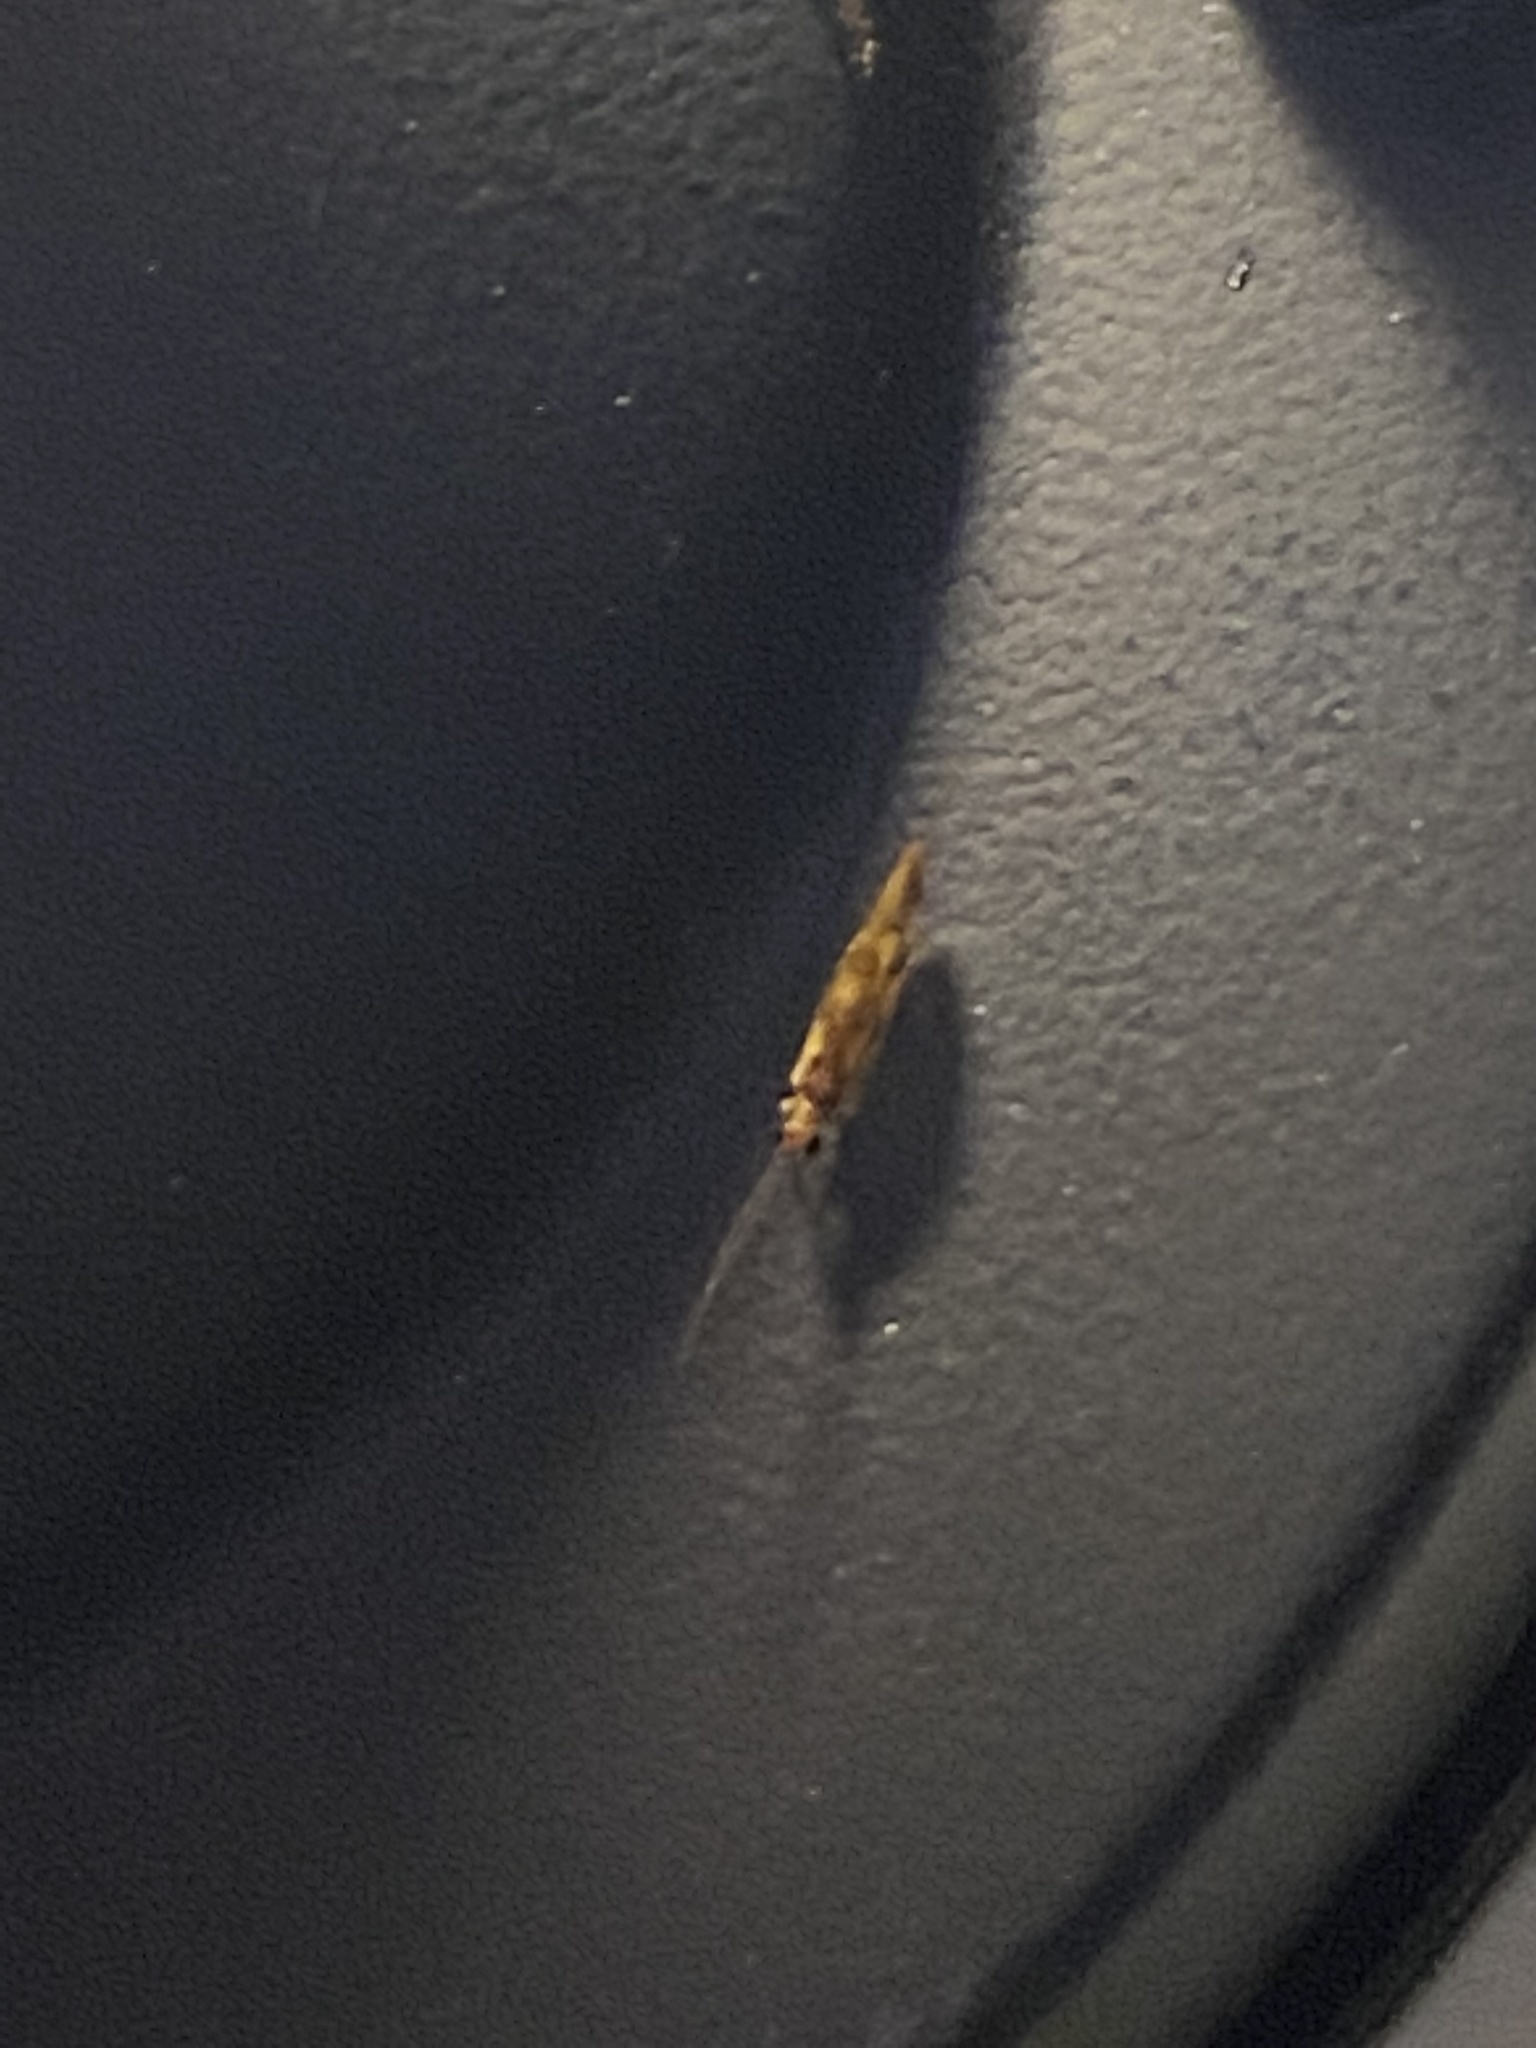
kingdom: Animalia
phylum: Arthropoda
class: Insecta
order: Neuroptera
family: Sisyridae
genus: Climacia
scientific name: Climacia areolaris
